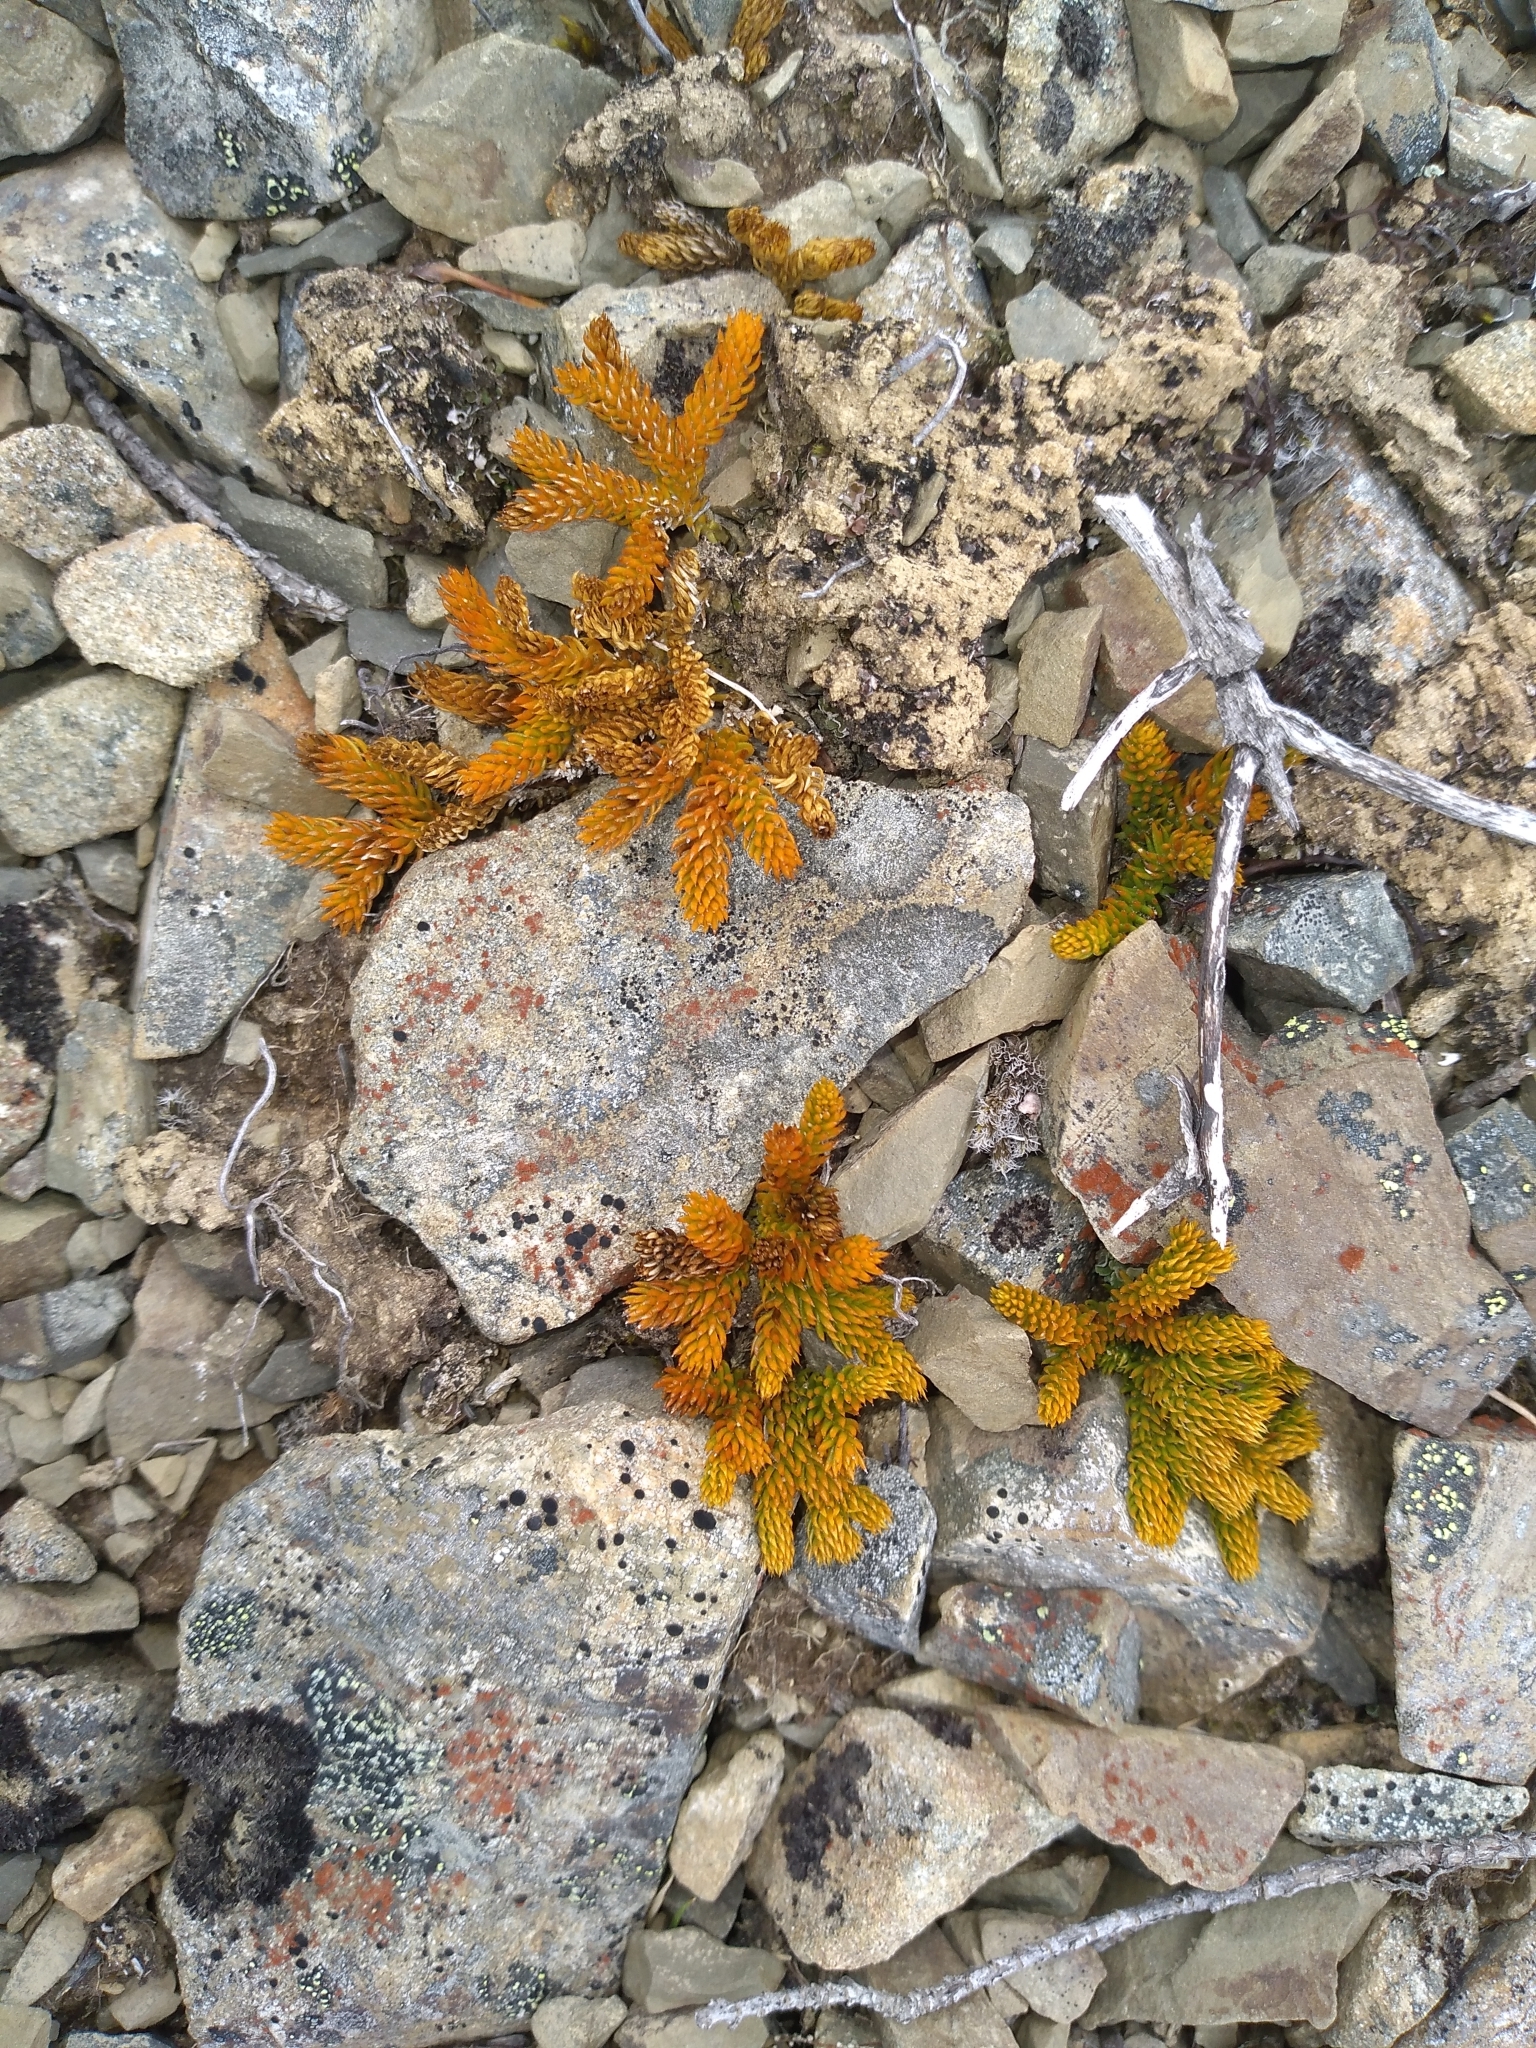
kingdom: Plantae
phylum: Tracheophyta
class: Lycopodiopsida
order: Lycopodiales
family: Lycopodiaceae
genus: Austrolycopodium
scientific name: Austrolycopodium fastigiatum
